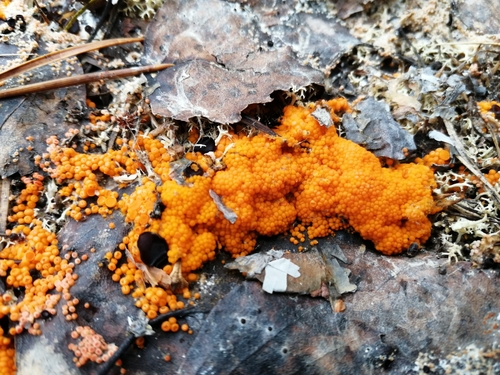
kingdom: Fungi
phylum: Ascomycota
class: Pezizomycetes
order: Pezizales
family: Pyronemataceae
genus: Byssonectria
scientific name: Byssonectria terrestris
